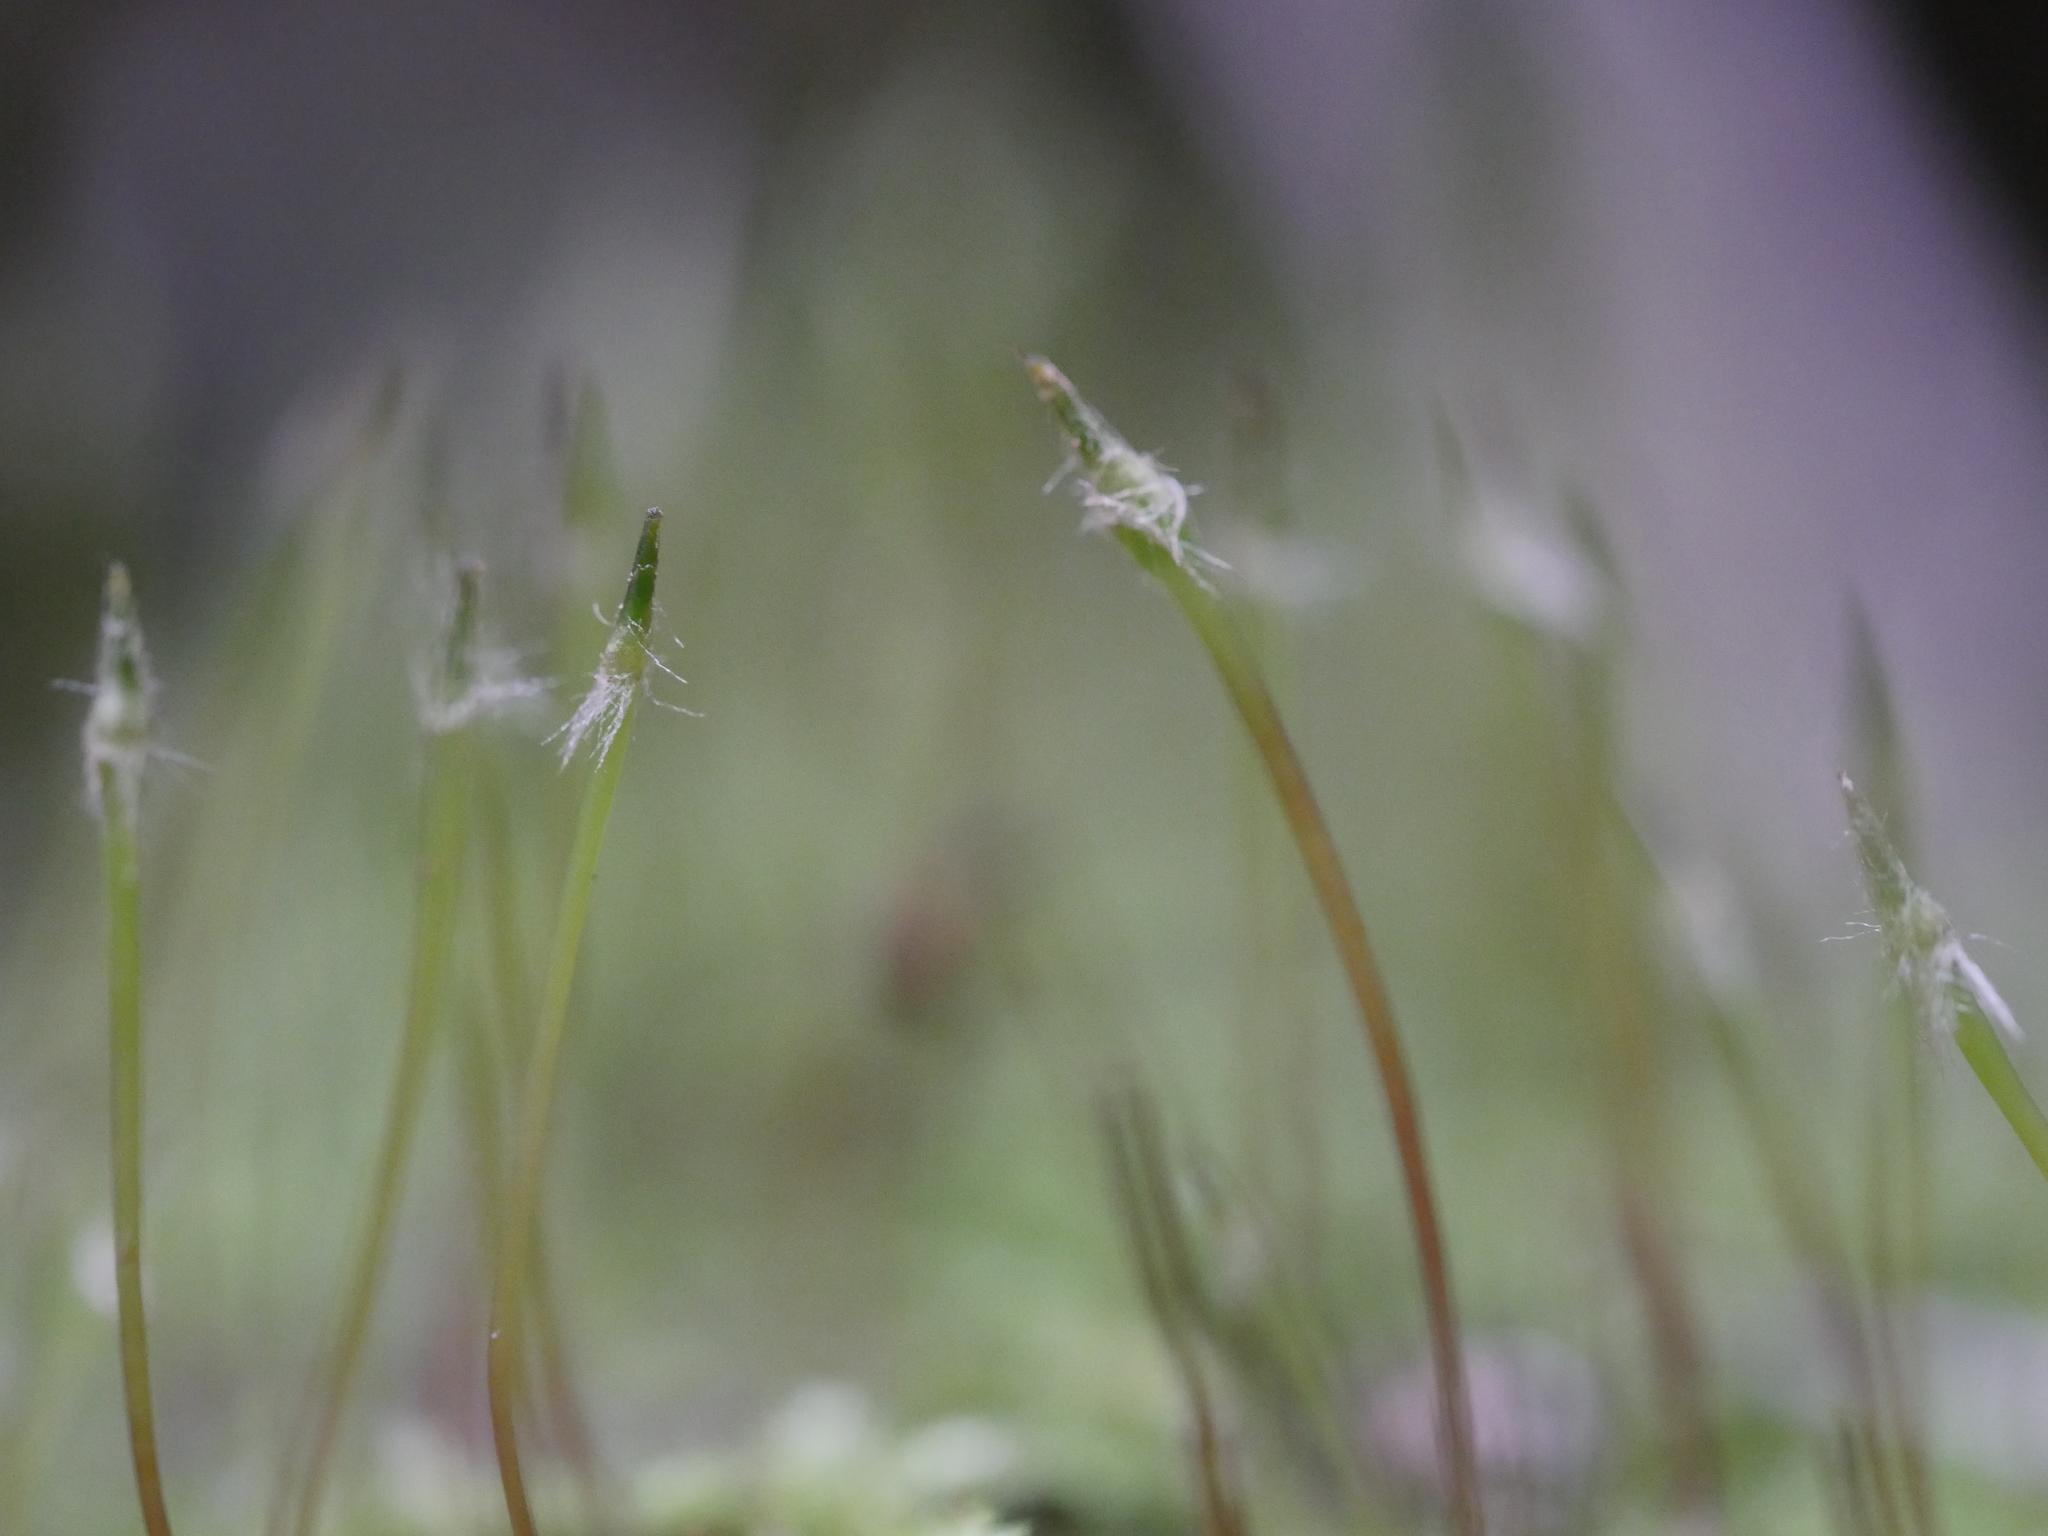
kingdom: Plantae
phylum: Bryophyta
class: Bryopsida
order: Hypnodendrales
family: Racopilaceae
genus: Racopilum
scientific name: Racopilum strumiferum
